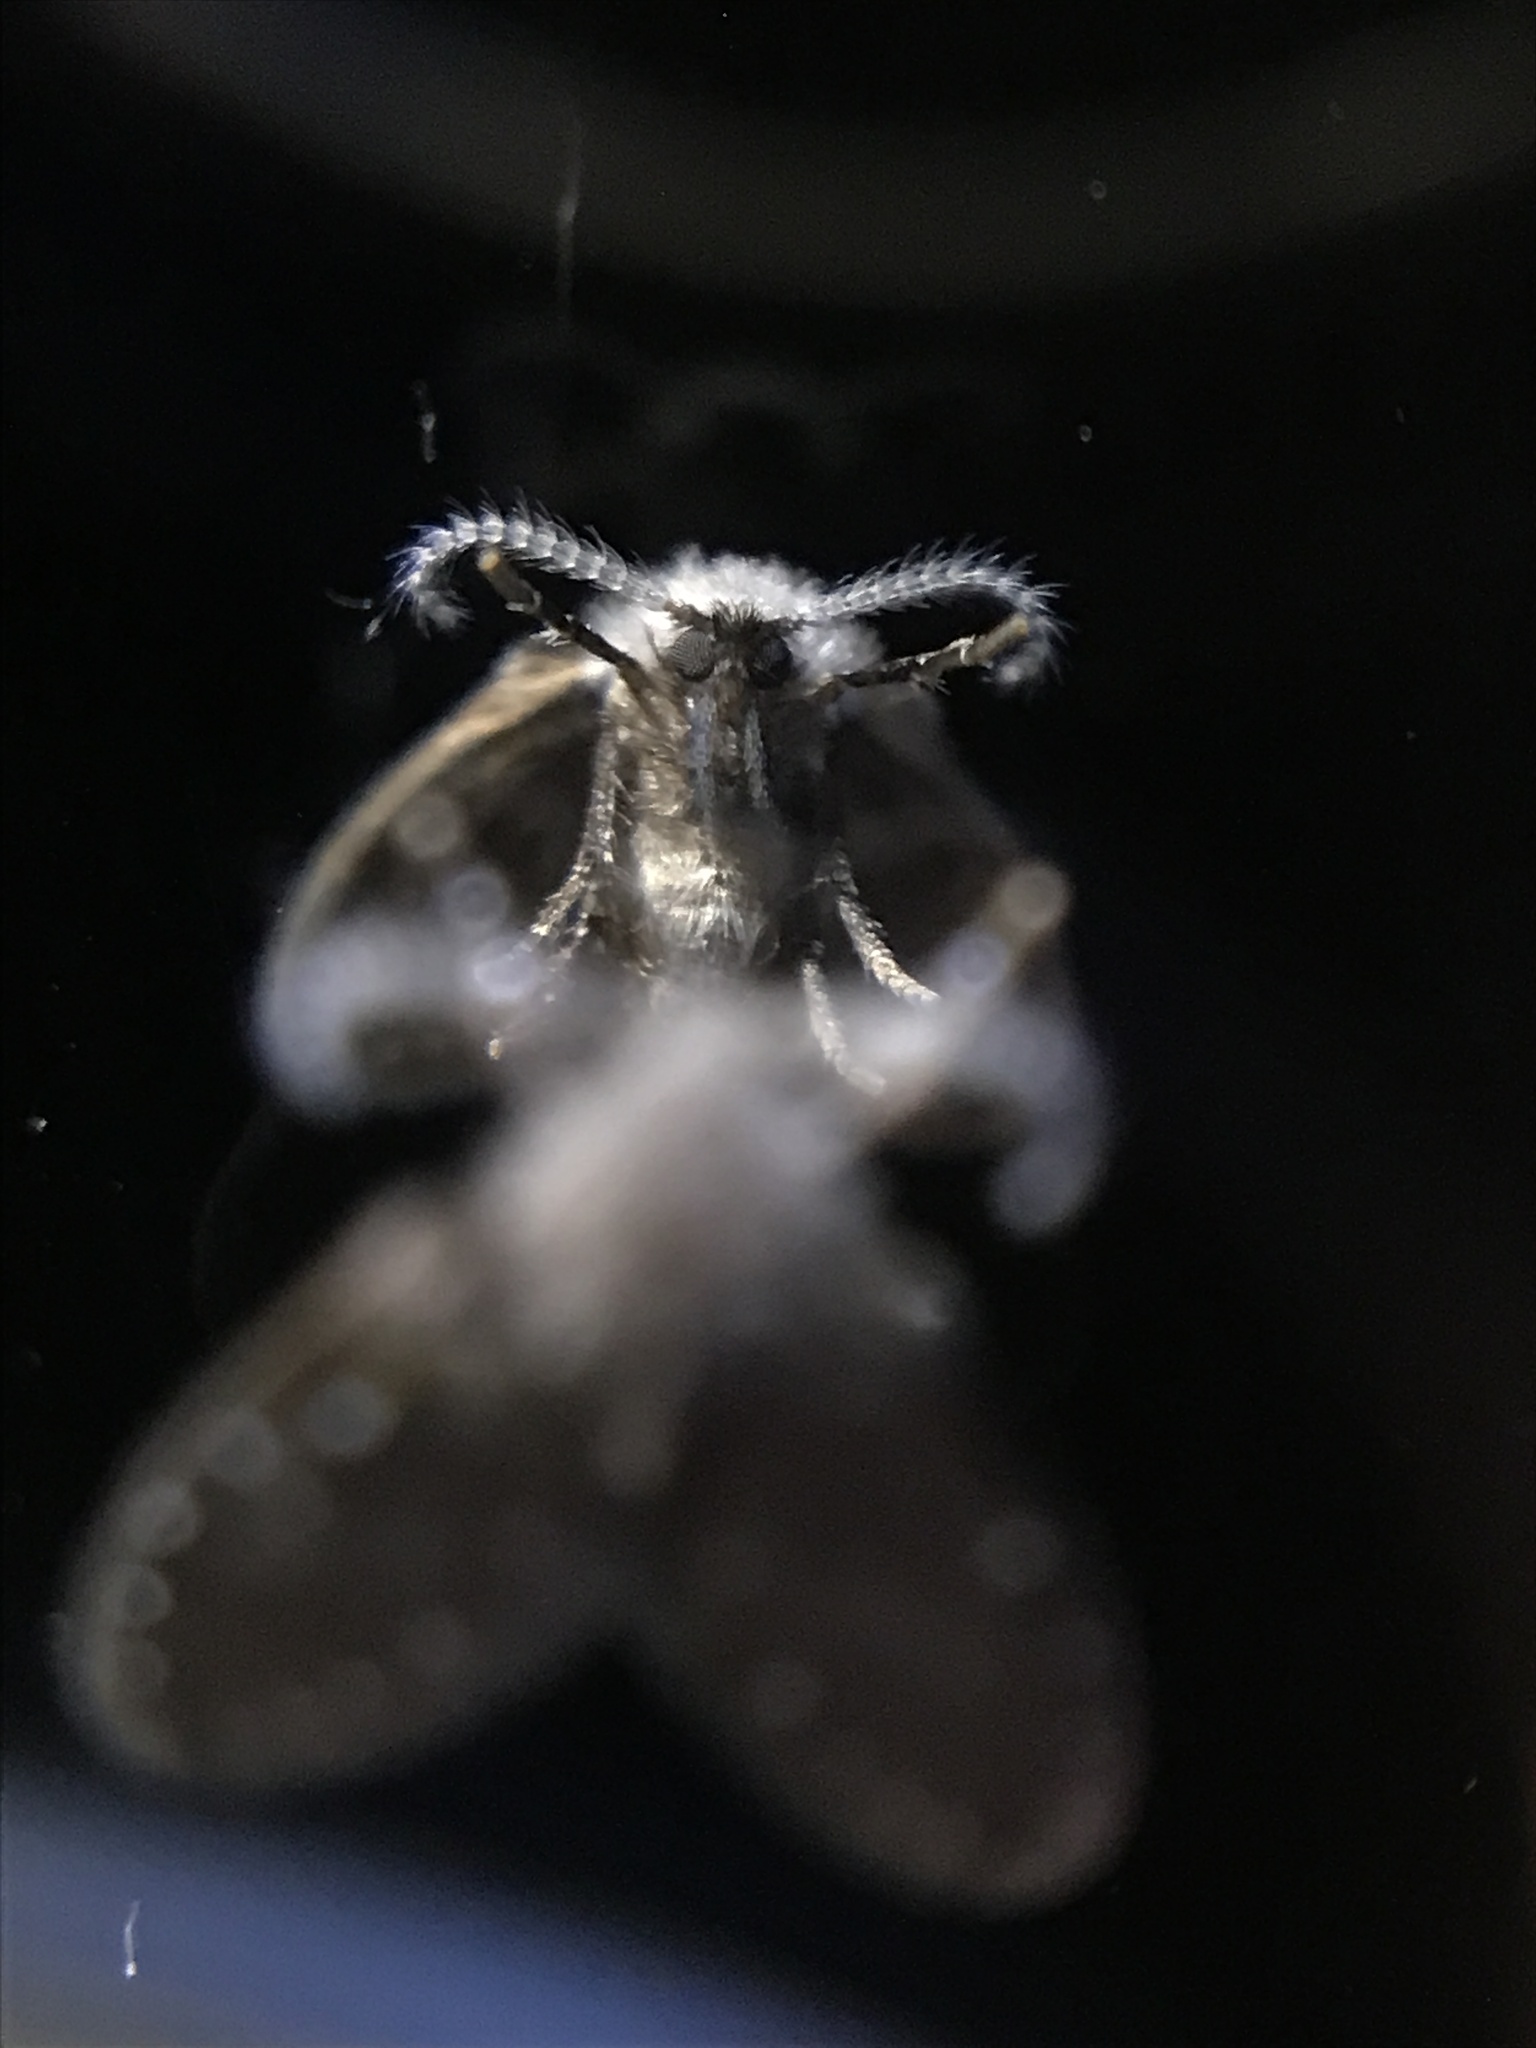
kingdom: Animalia
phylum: Arthropoda
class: Insecta
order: Diptera
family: Psychodidae
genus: Clogmia
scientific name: Clogmia albipunctatus
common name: White-spotted moth fly
